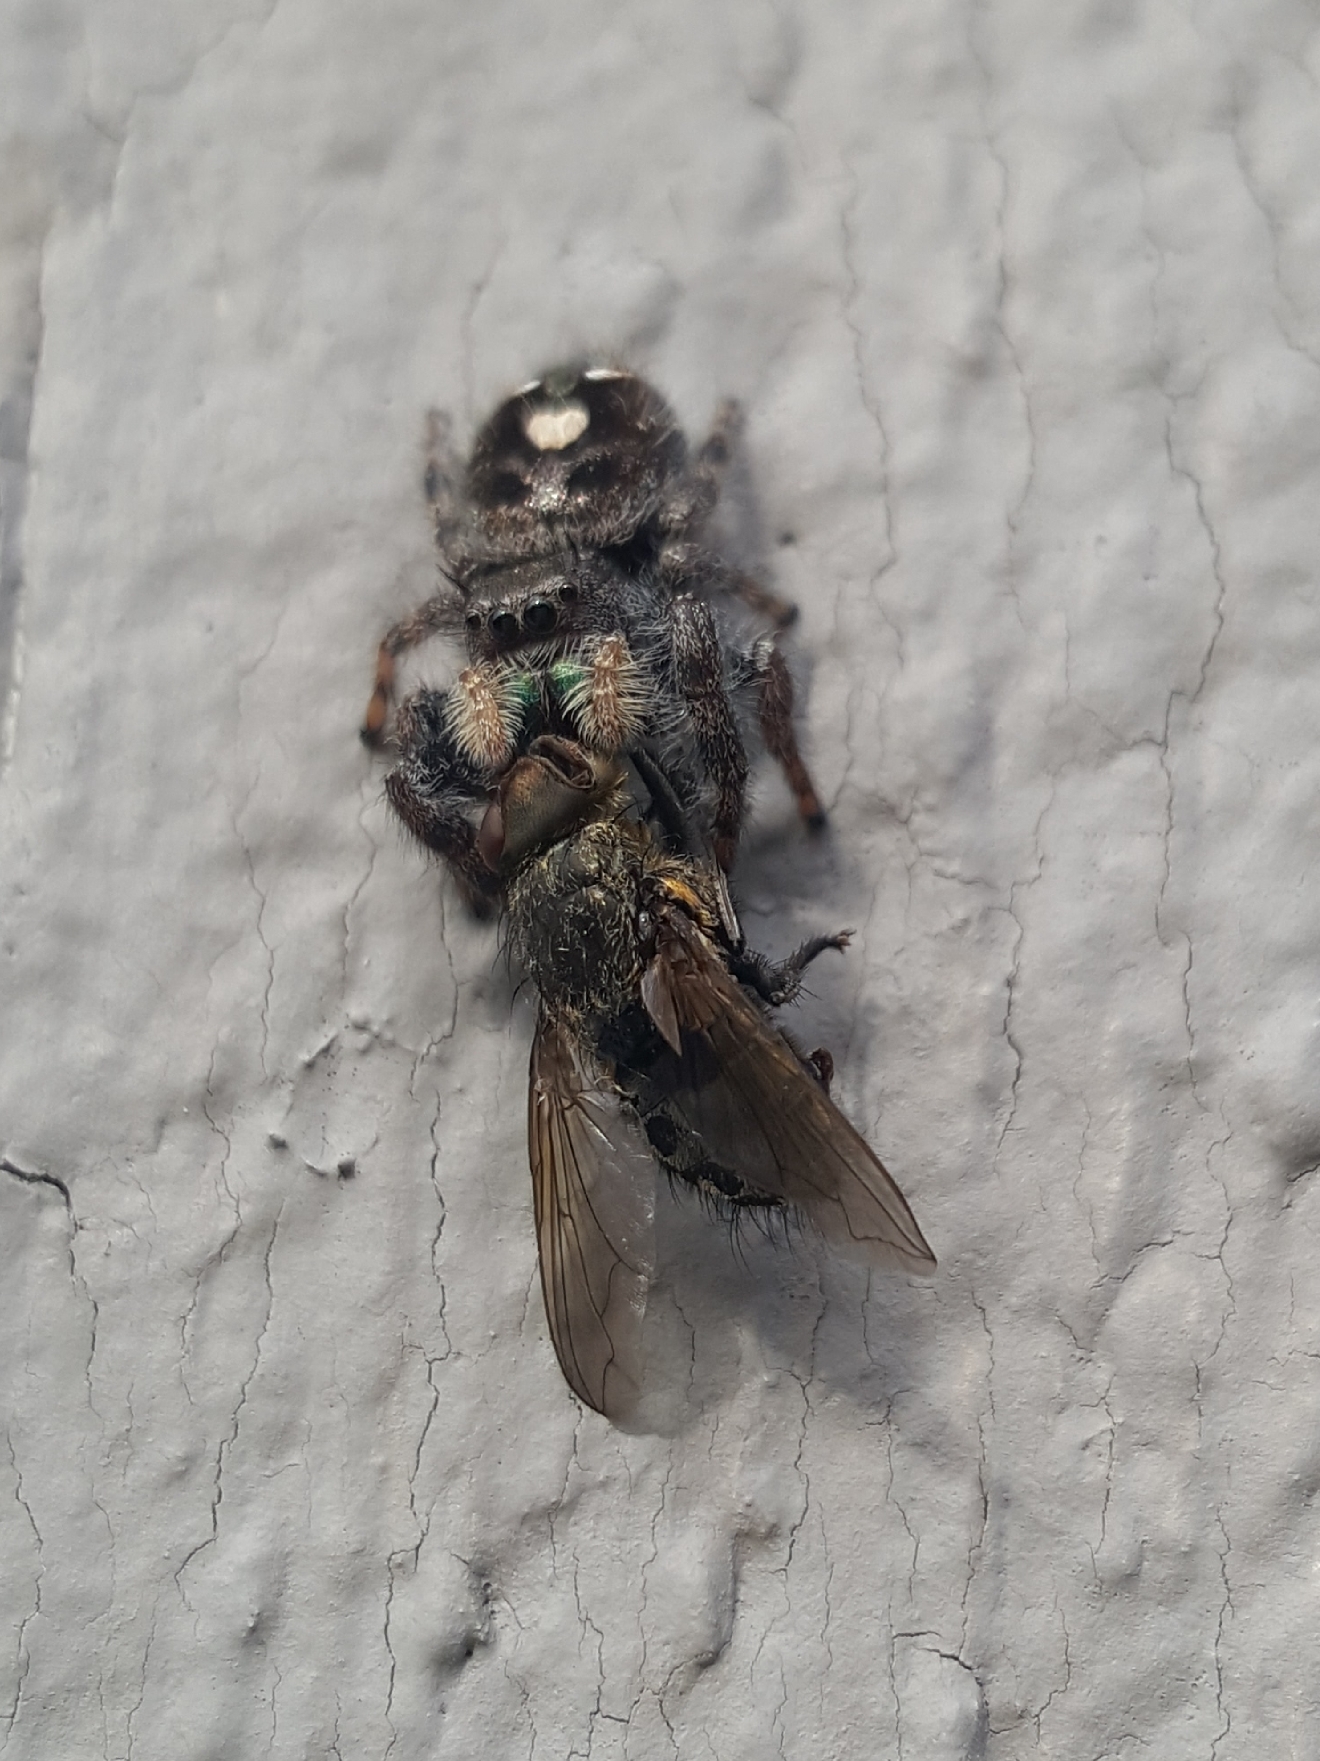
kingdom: Animalia
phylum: Arthropoda
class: Arachnida
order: Araneae
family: Salticidae
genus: Phidippus
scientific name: Phidippus audax
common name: Bold jumper
